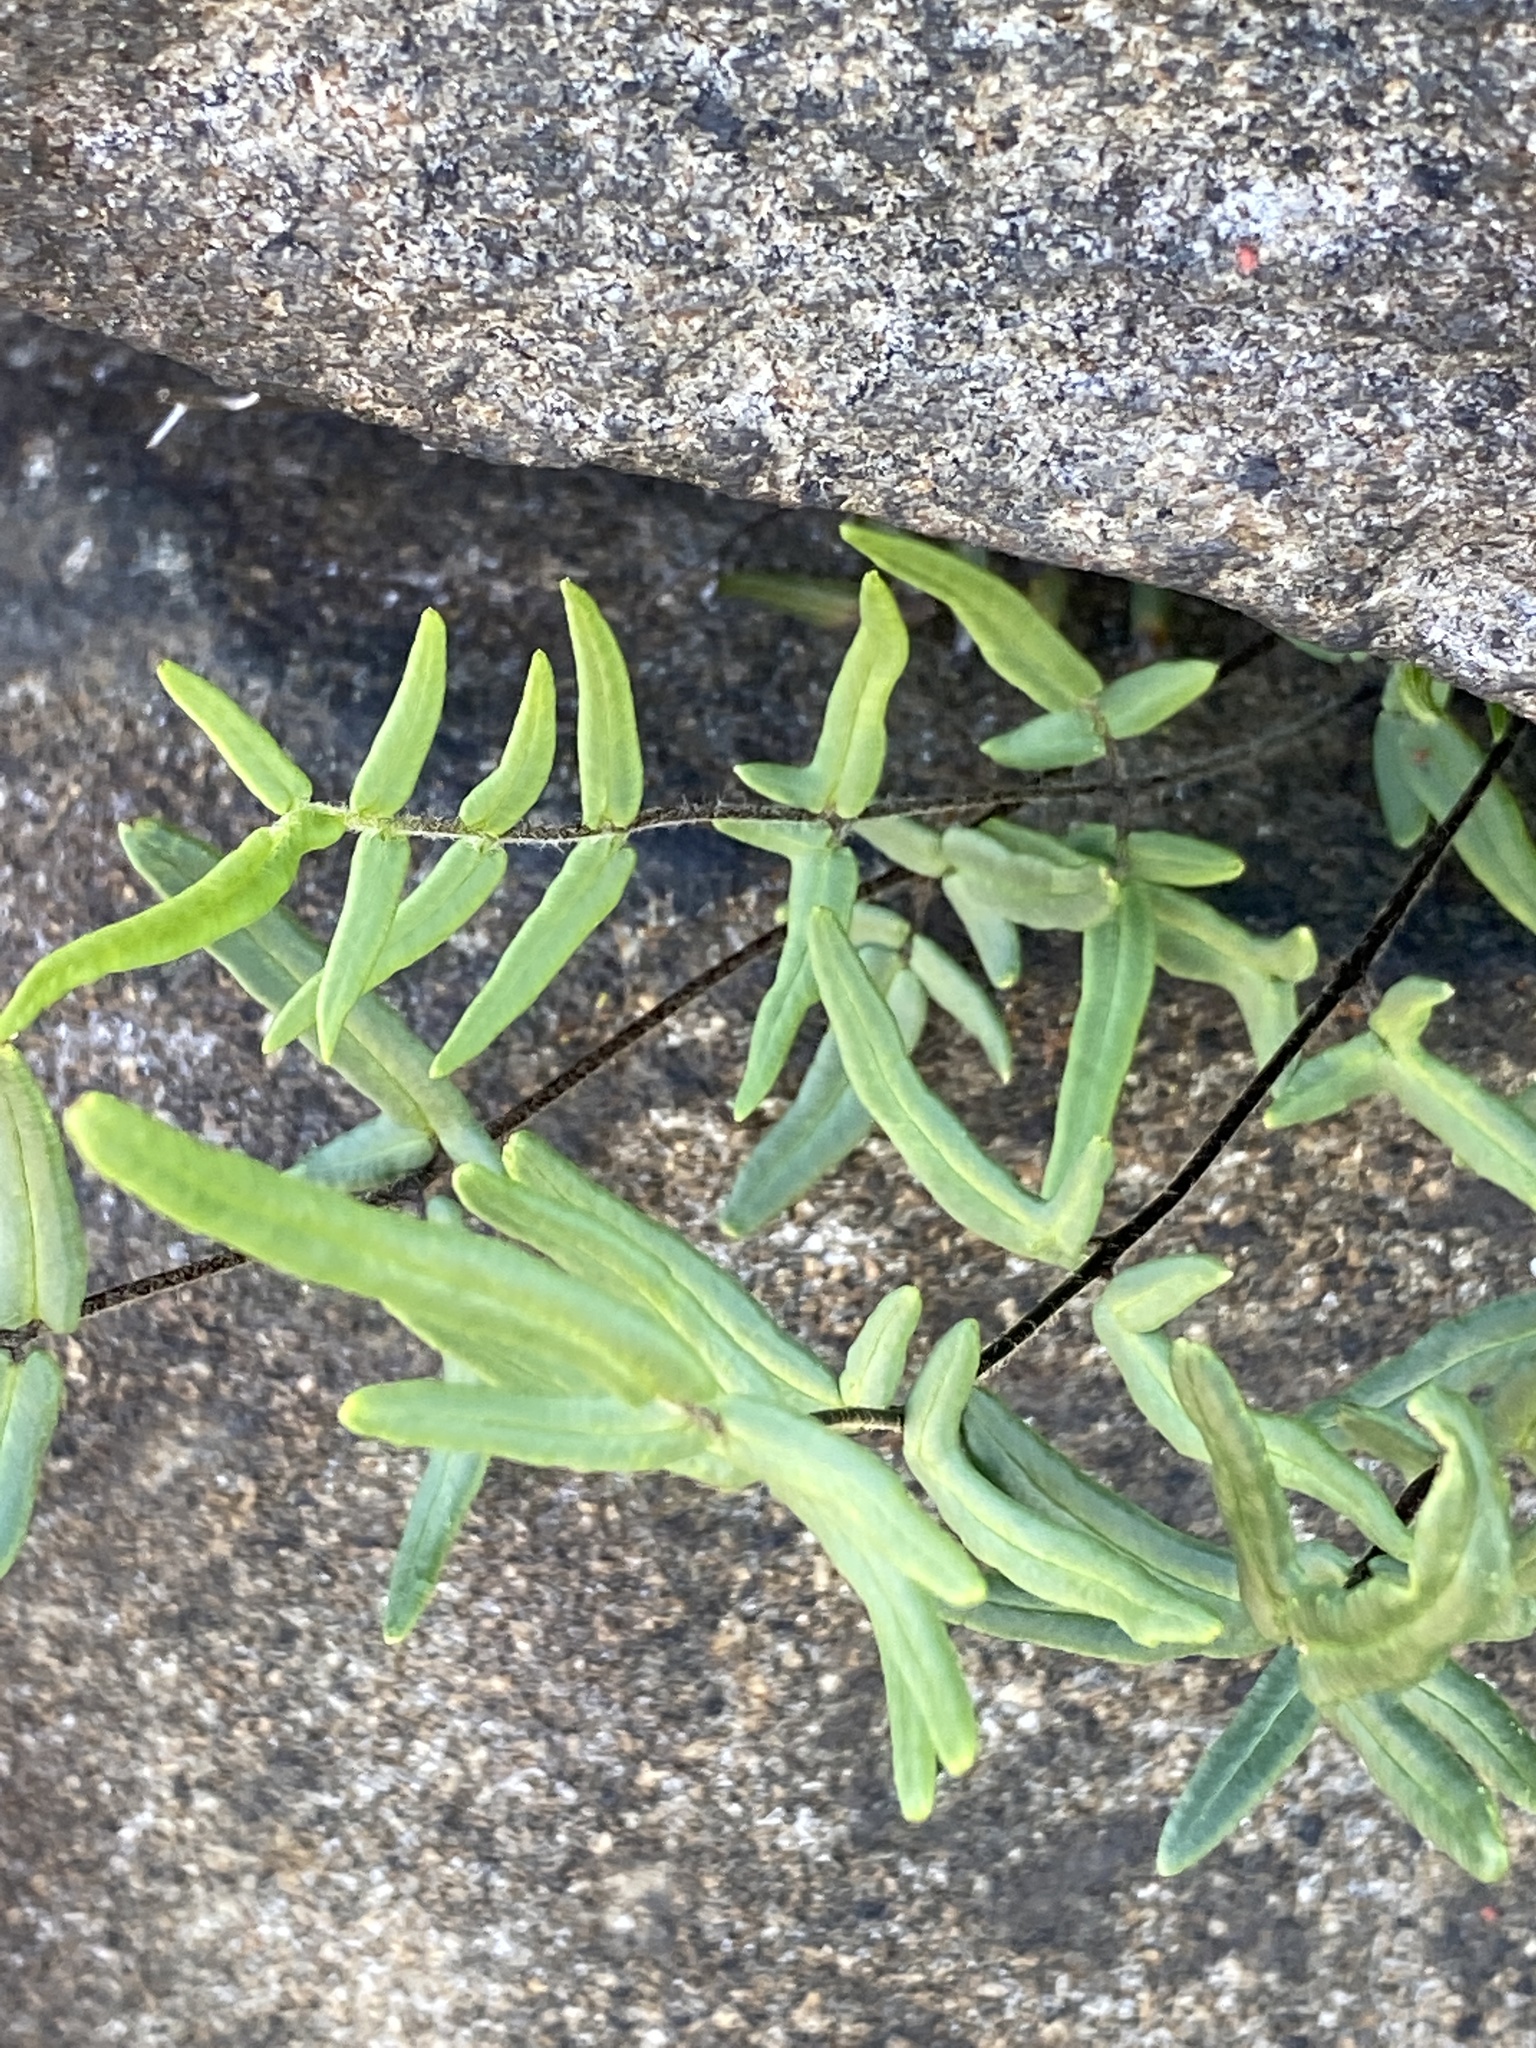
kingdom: Plantae
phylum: Tracheophyta
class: Polypodiopsida
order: Polypodiales
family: Pteridaceae
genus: Pellaea
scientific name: Pellaea atropurpurea
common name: Hairy cliffbrake
